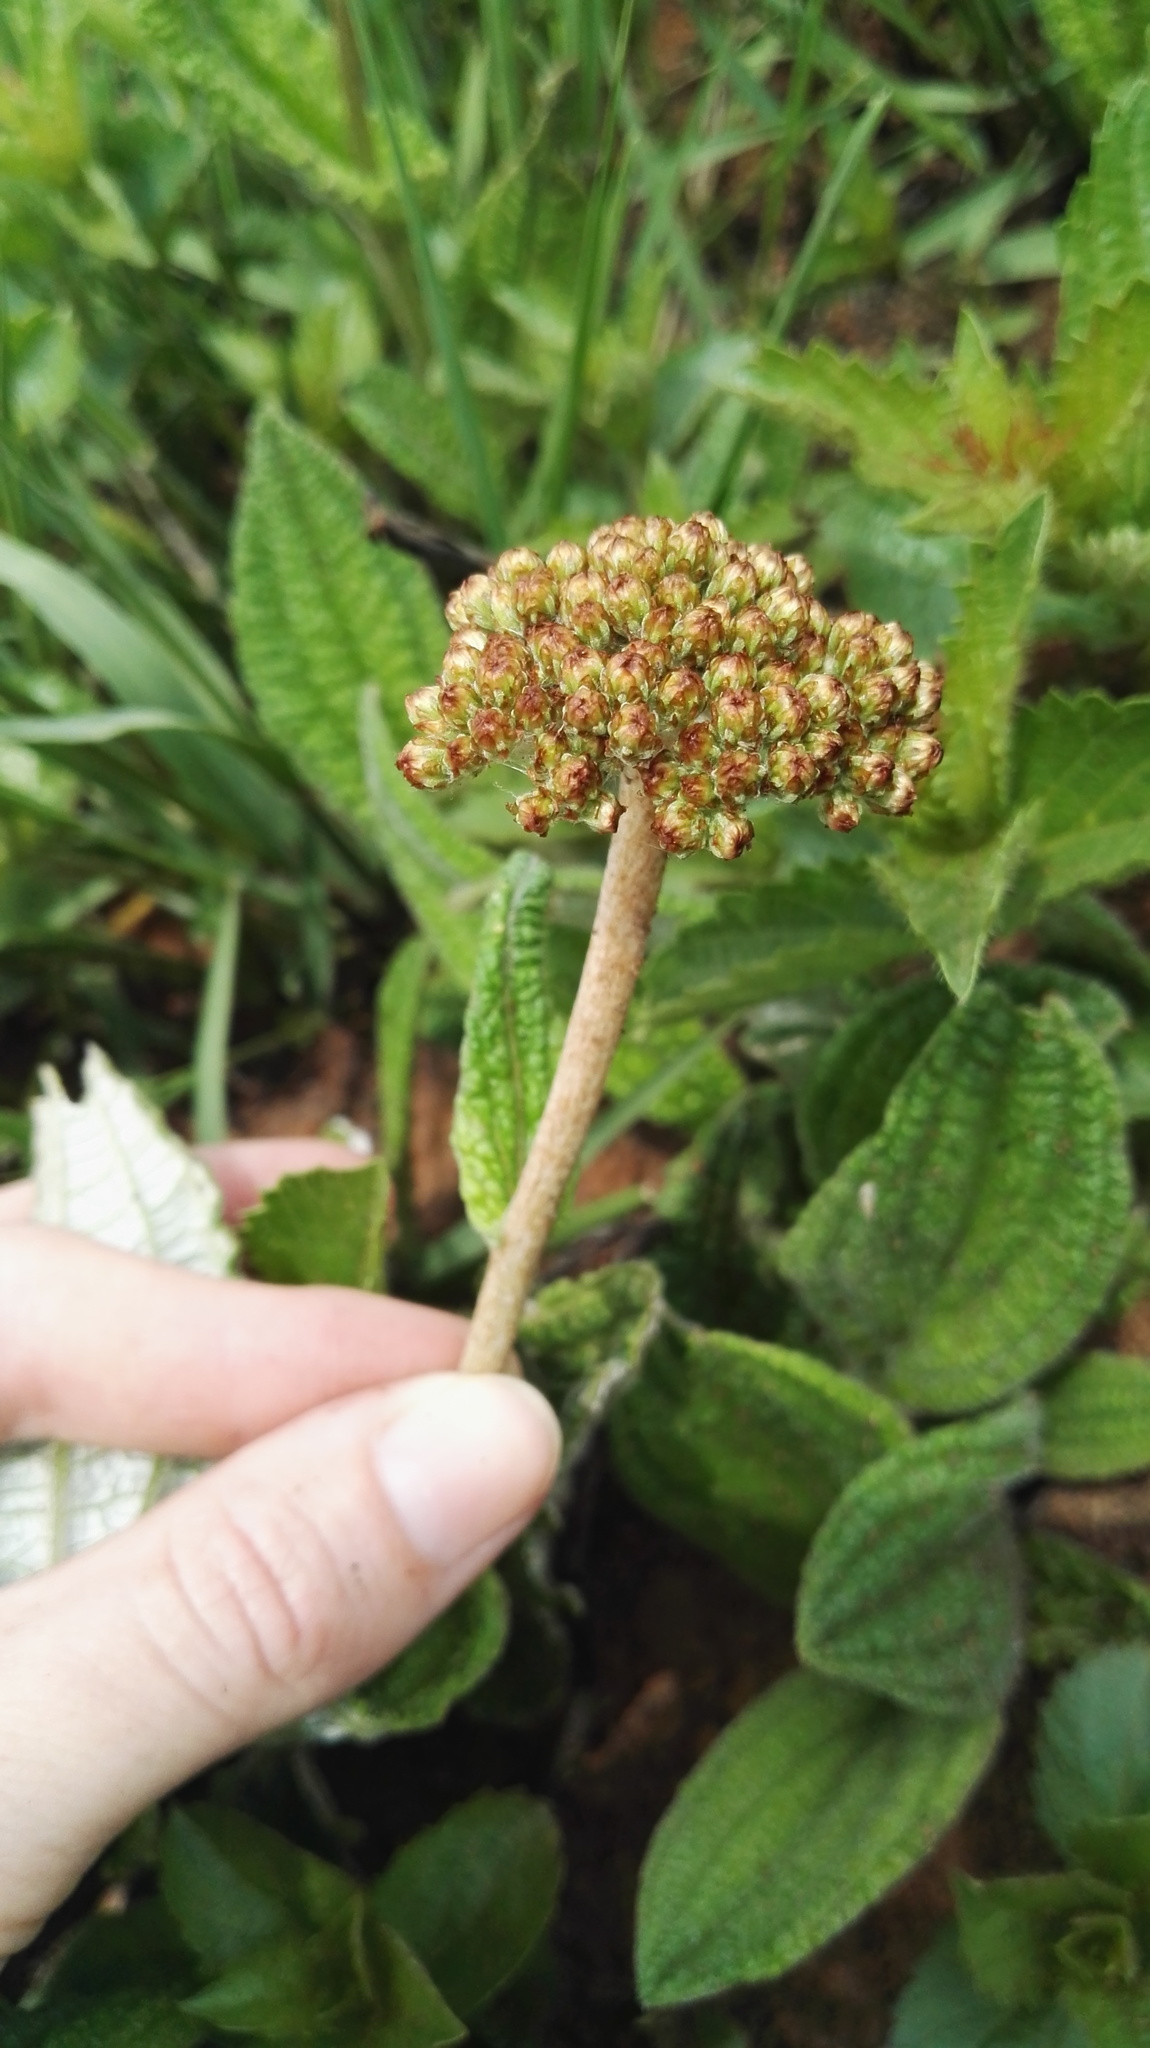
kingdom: Plantae
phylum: Tracheophyta
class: Magnoliopsida
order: Asterales
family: Asteraceae
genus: Helichrysum
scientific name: Helichrysum nudifolium
